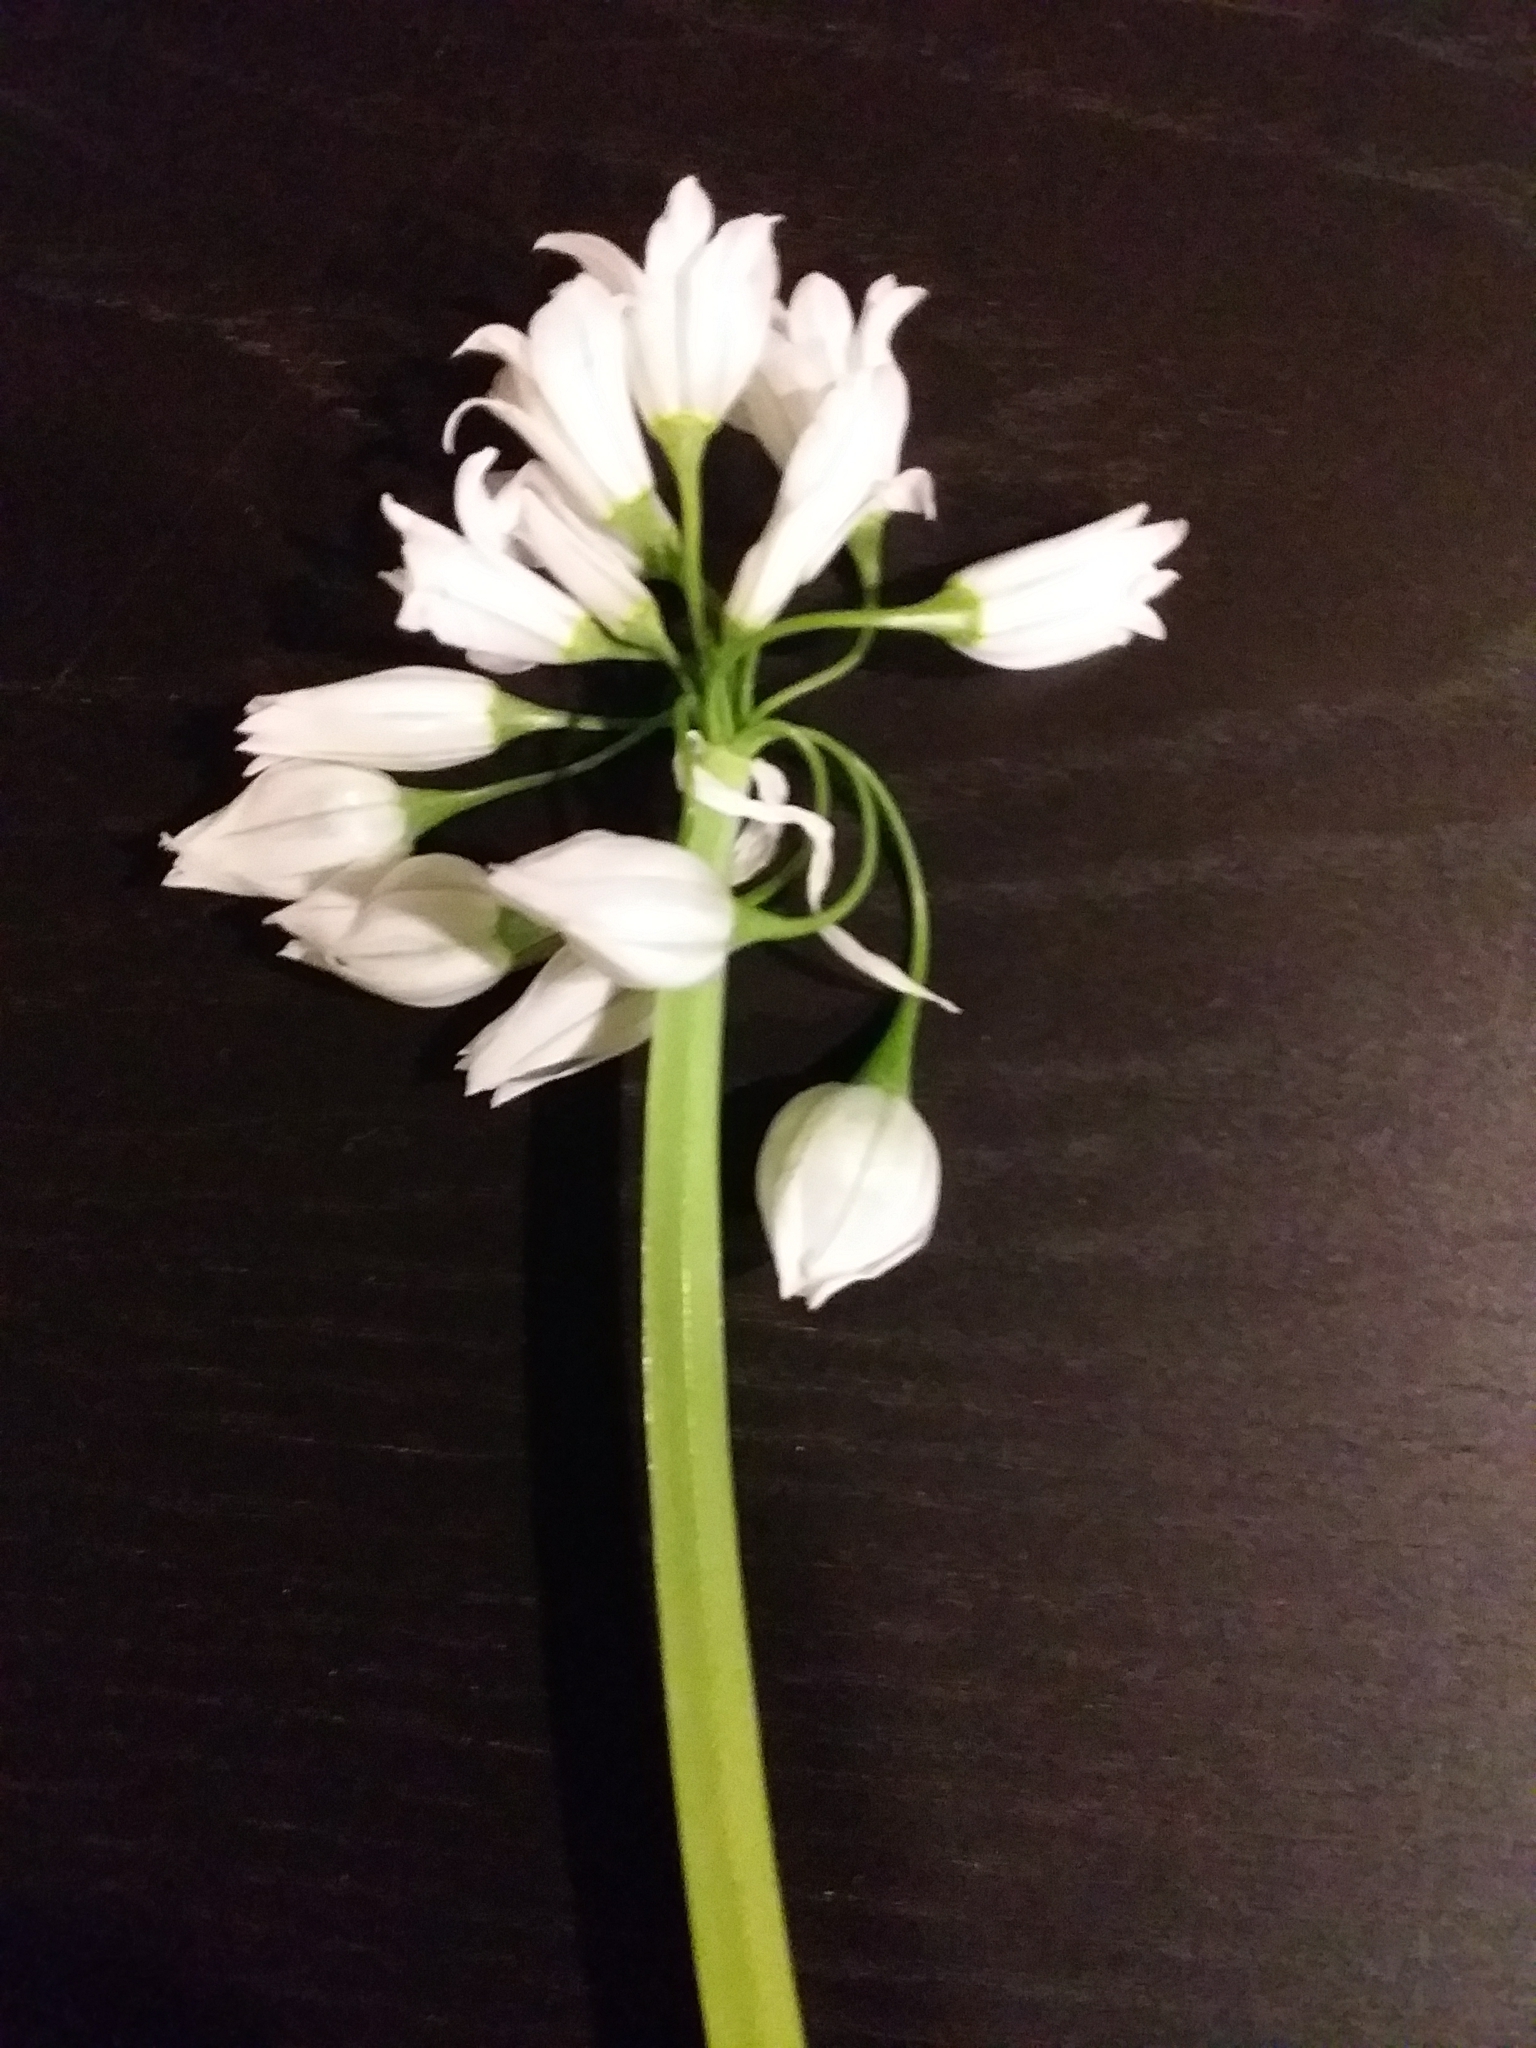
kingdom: Plantae
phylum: Tracheophyta
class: Liliopsida
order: Asparagales
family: Amaryllidaceae
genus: Allium
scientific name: Allium triquetrum
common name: Three-cornered garlic
